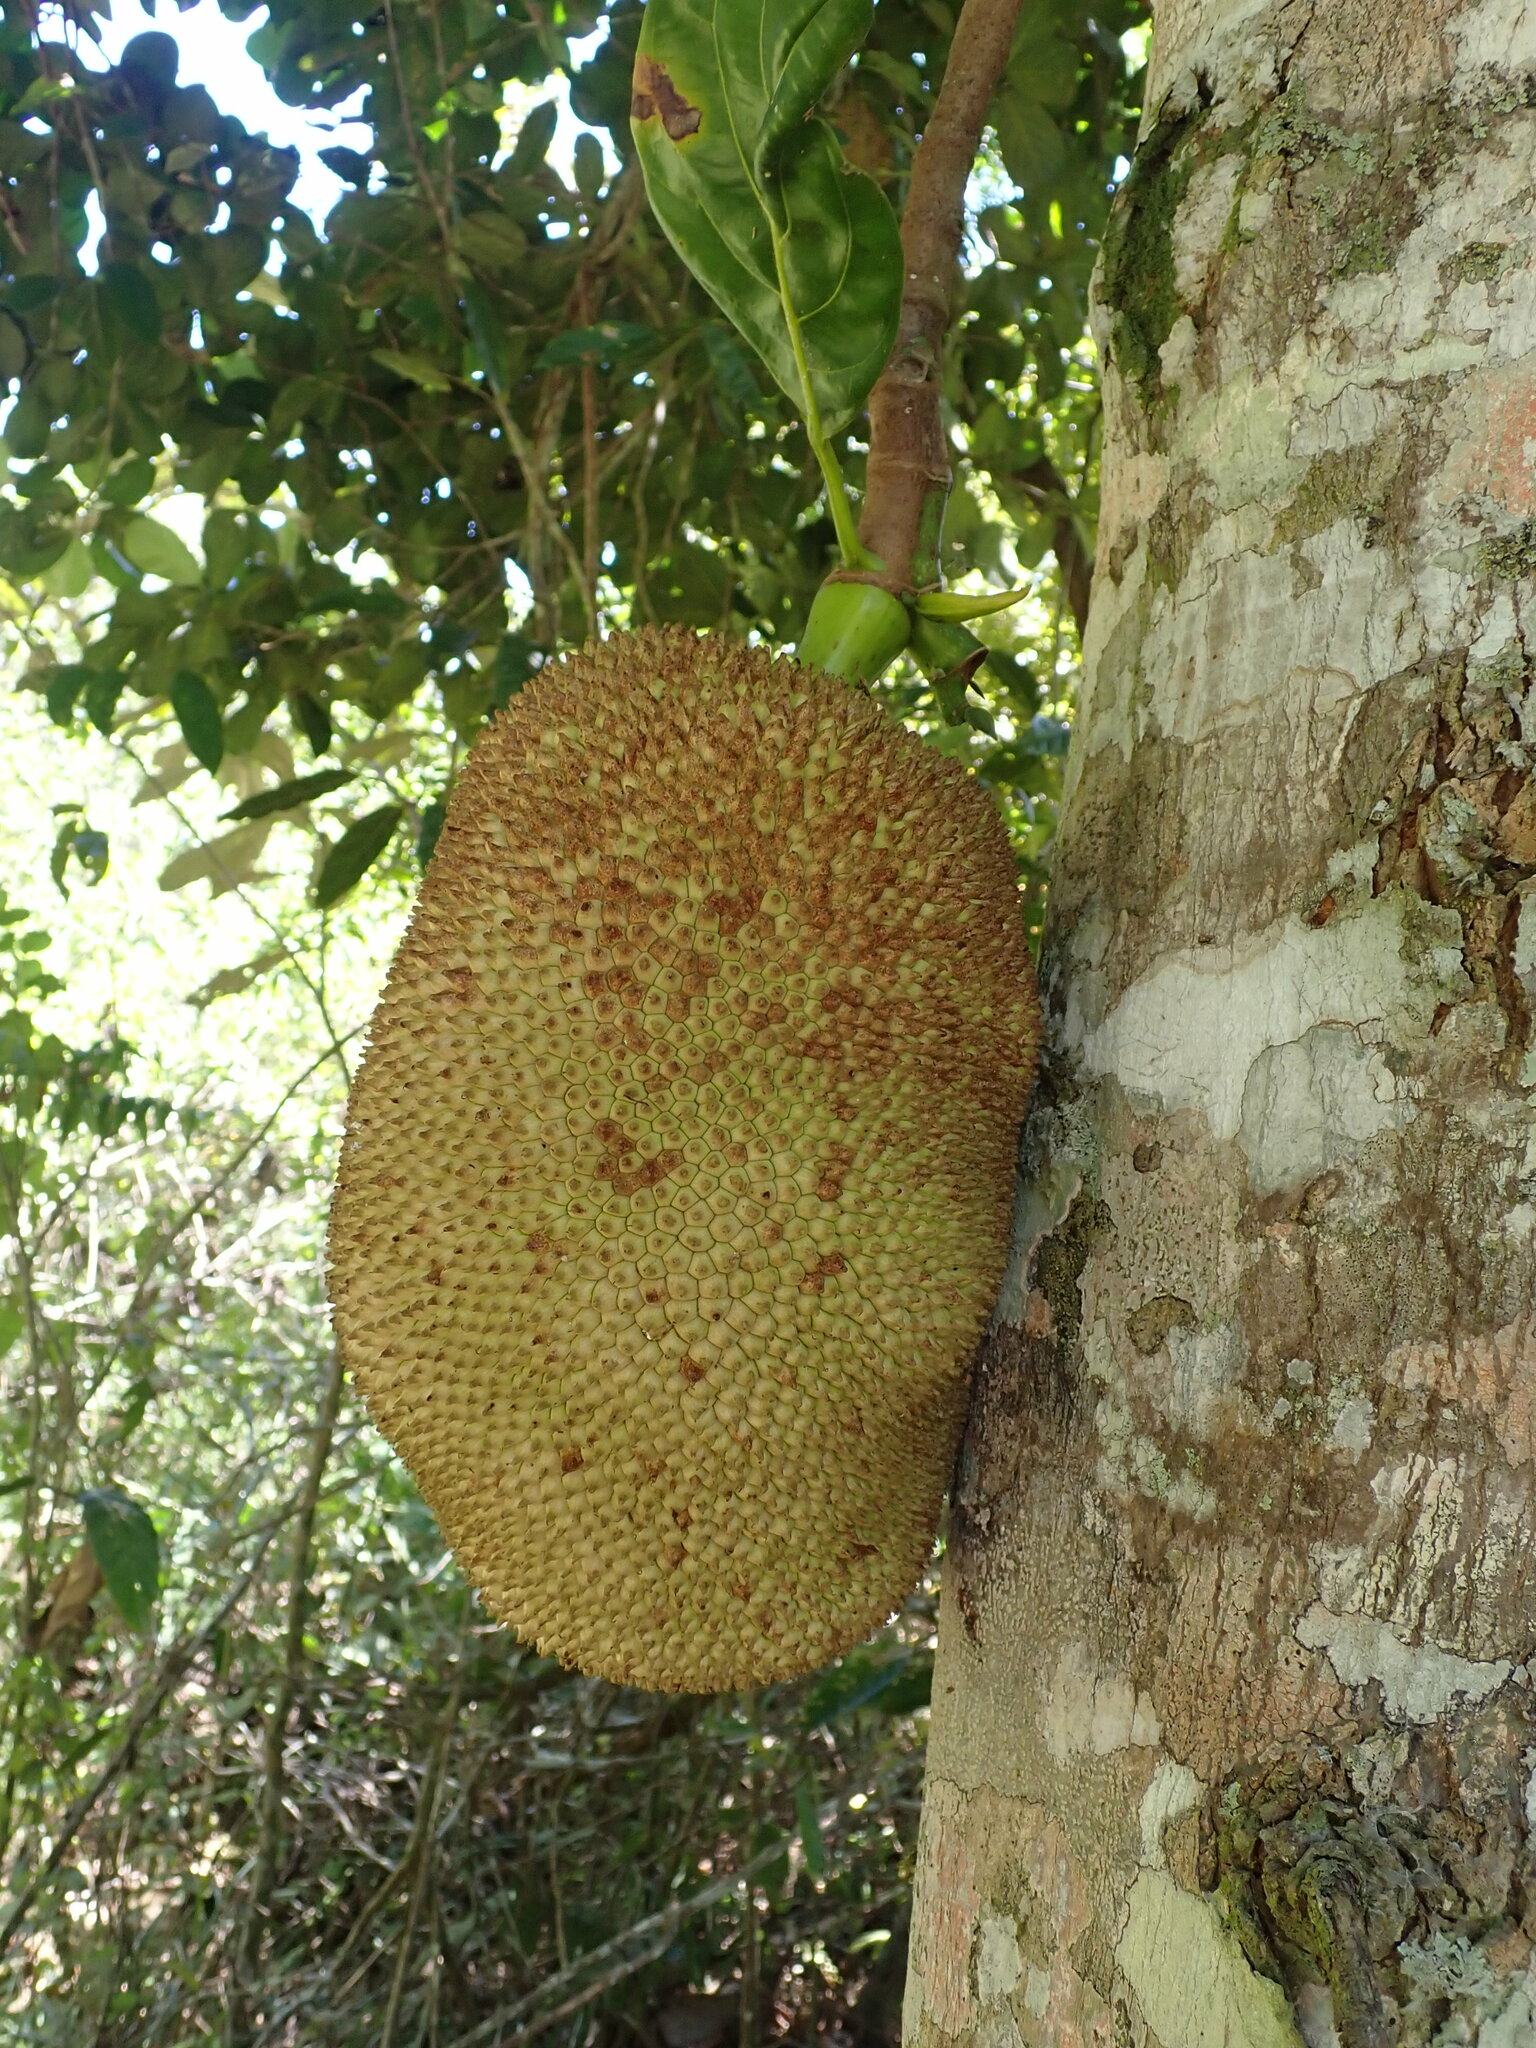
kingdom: Plantae
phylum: Tracheophyta
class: Magnoliopsida
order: Rosales
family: Moraceae
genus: Artocarpus
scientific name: Artocarpus heterophyllus
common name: Jackfruit
